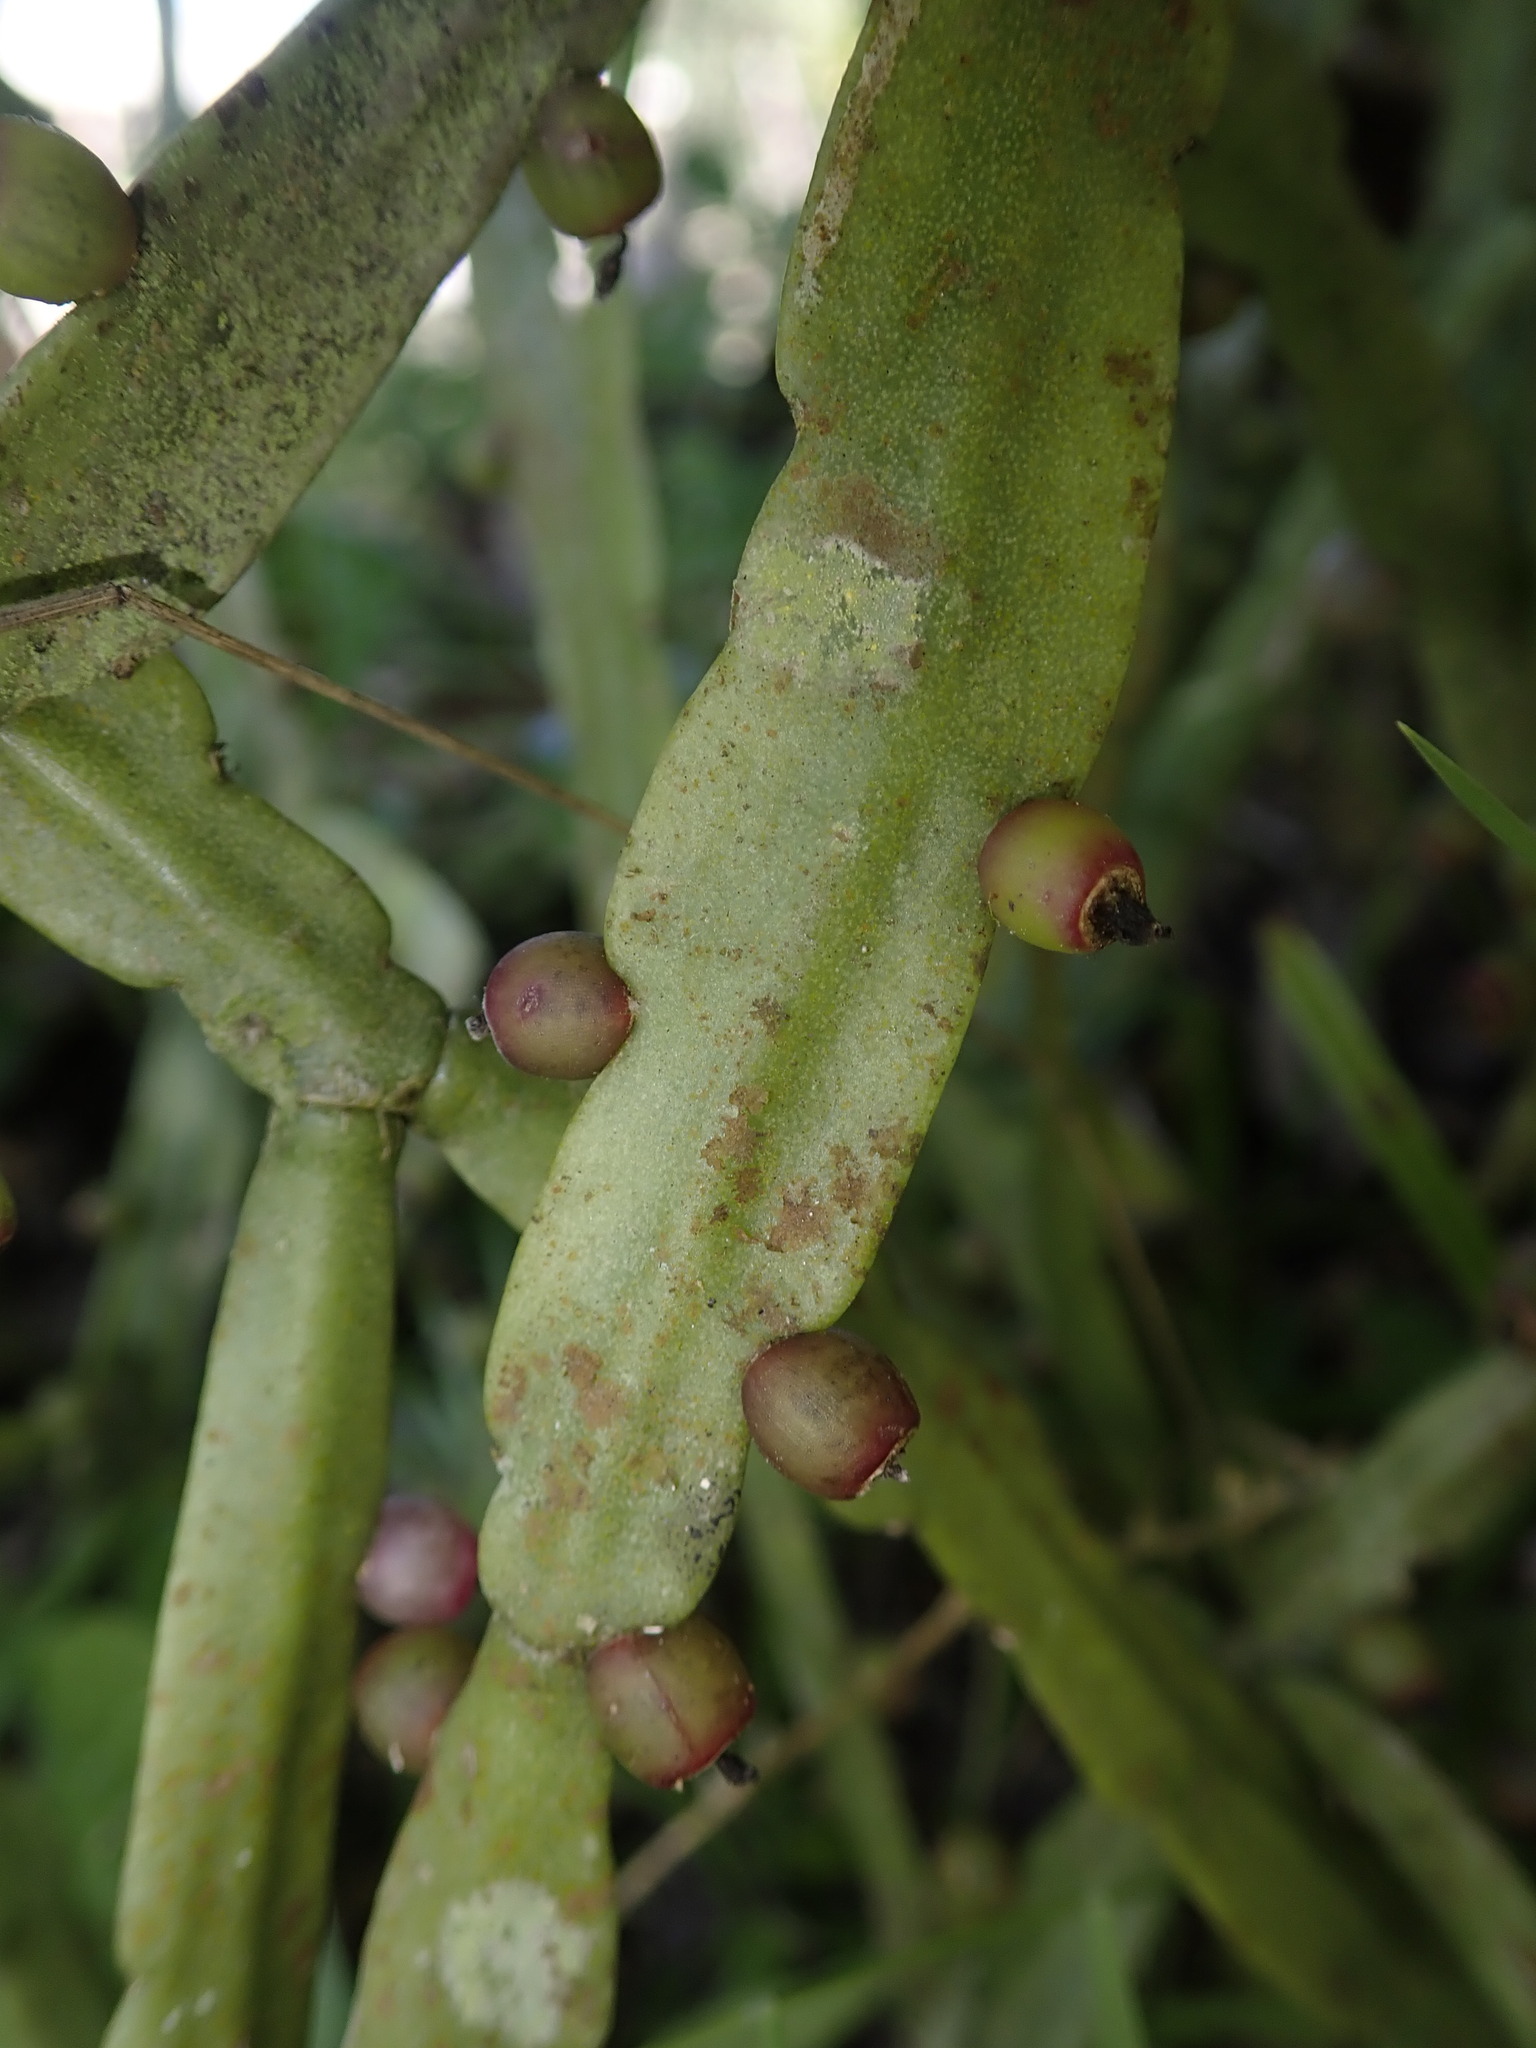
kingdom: Plantae
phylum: Tracheophyta
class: Magnoliopsida
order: Caryophyllales
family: Cactaceae
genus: Rhipsalis
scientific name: Rhipsalis micrantha
